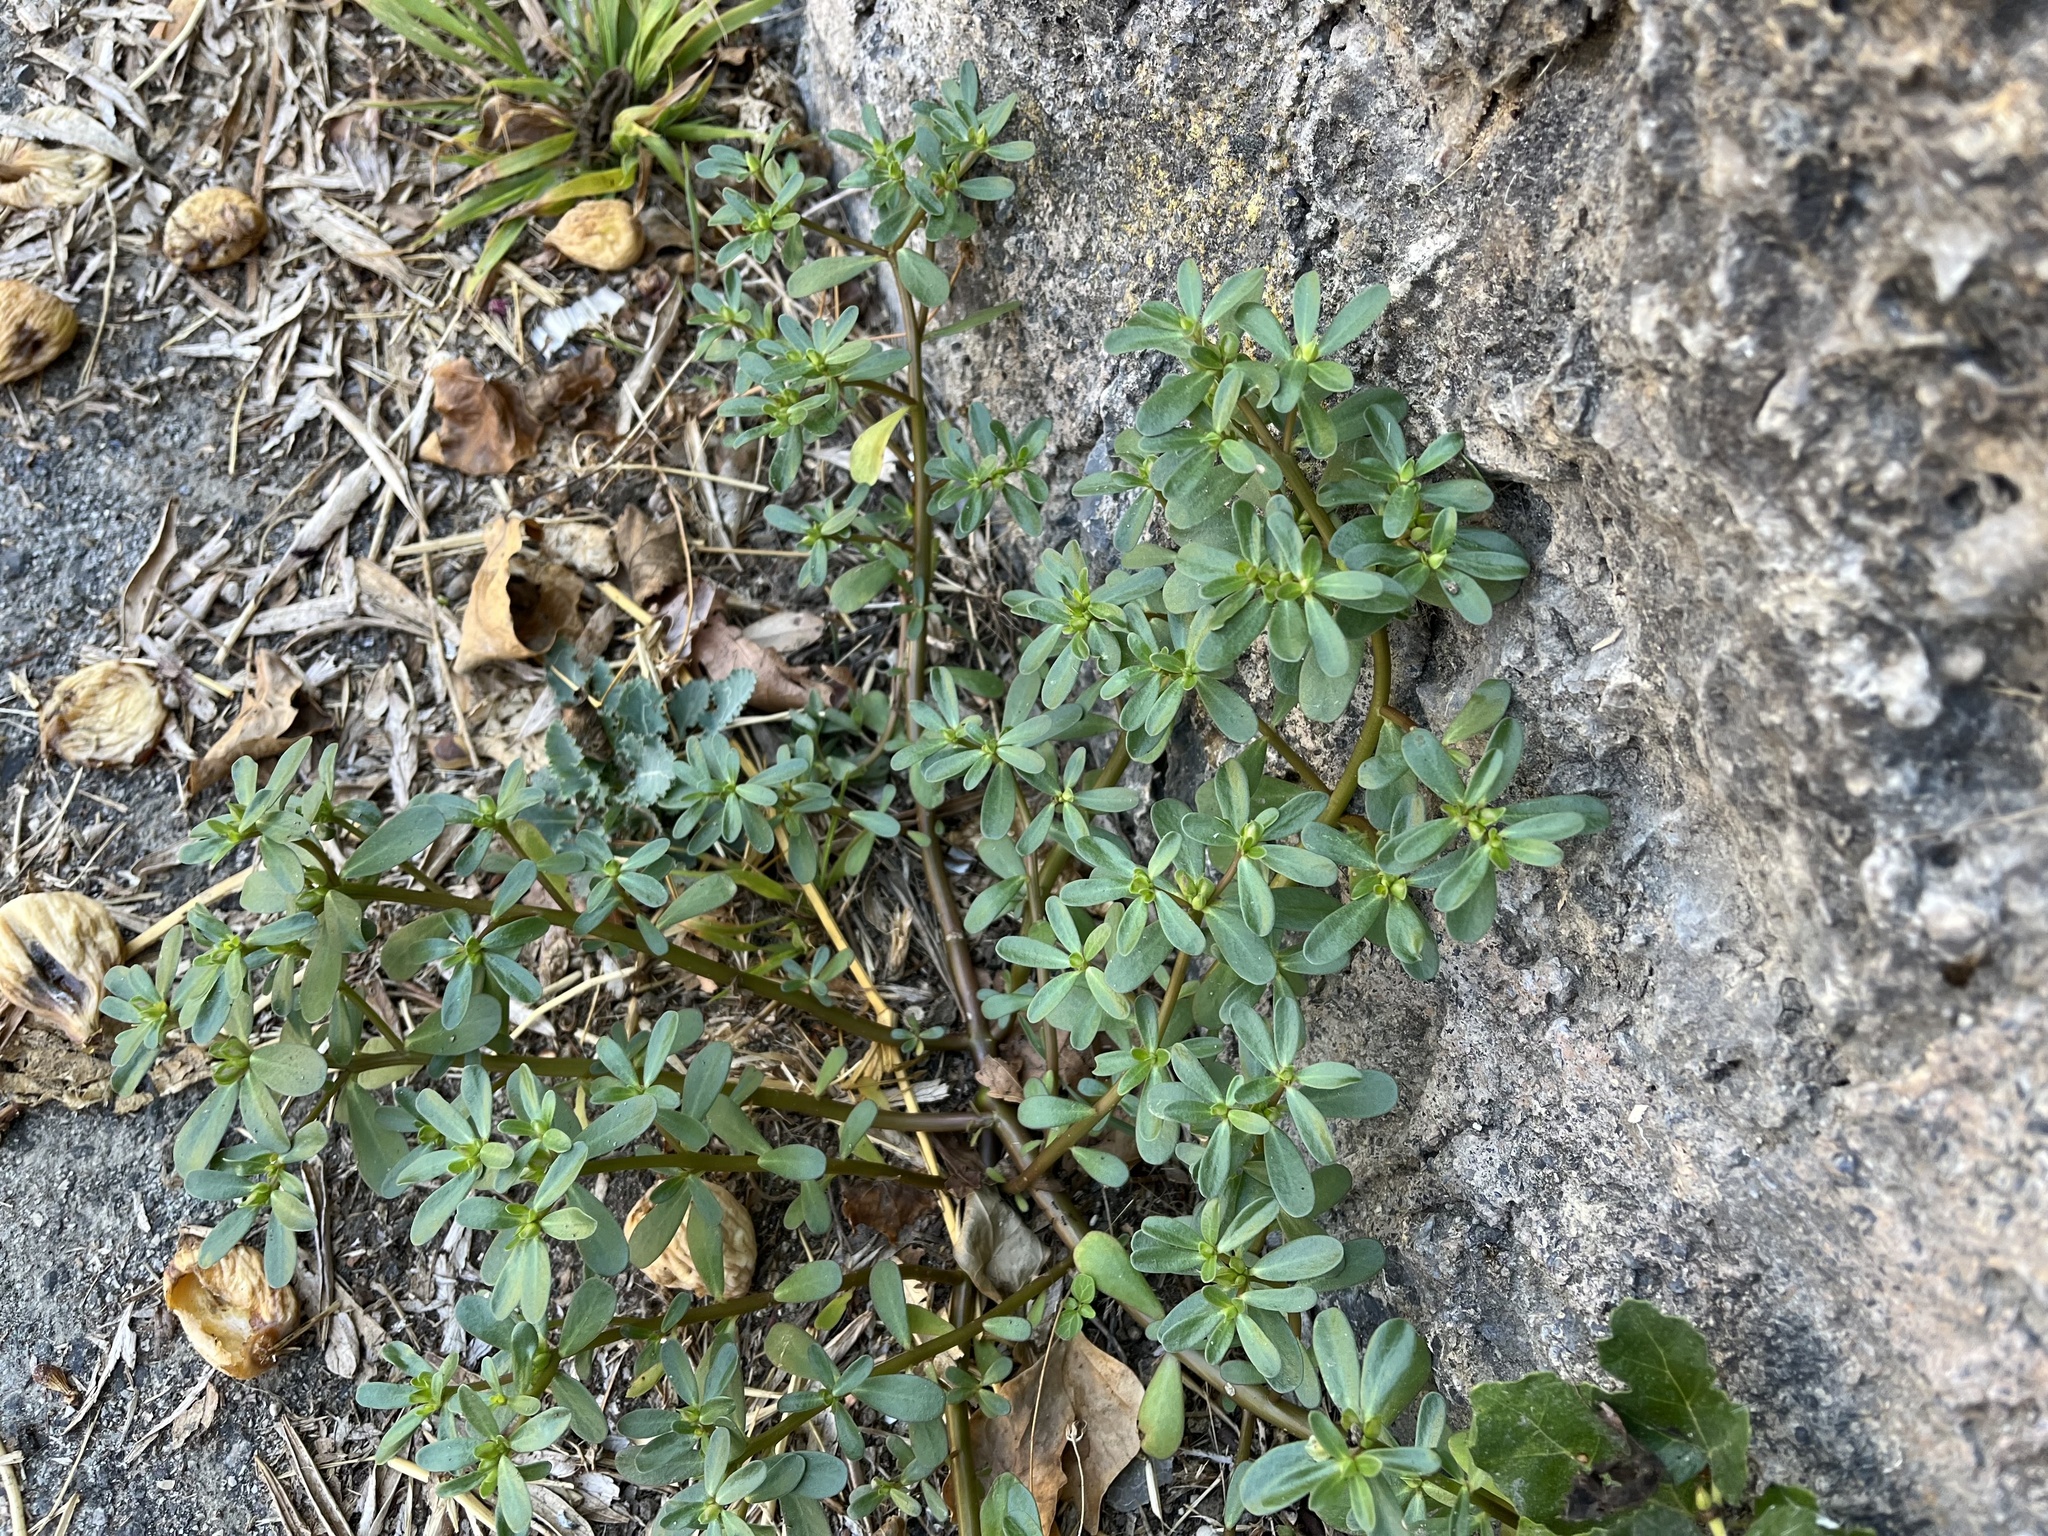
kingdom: Plantae
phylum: Tracheophyta
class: Magnoliopsida
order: Caryophyllales
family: Portulacaceae
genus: Portulaca
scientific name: Portulaca oleracea
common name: Common purslane
